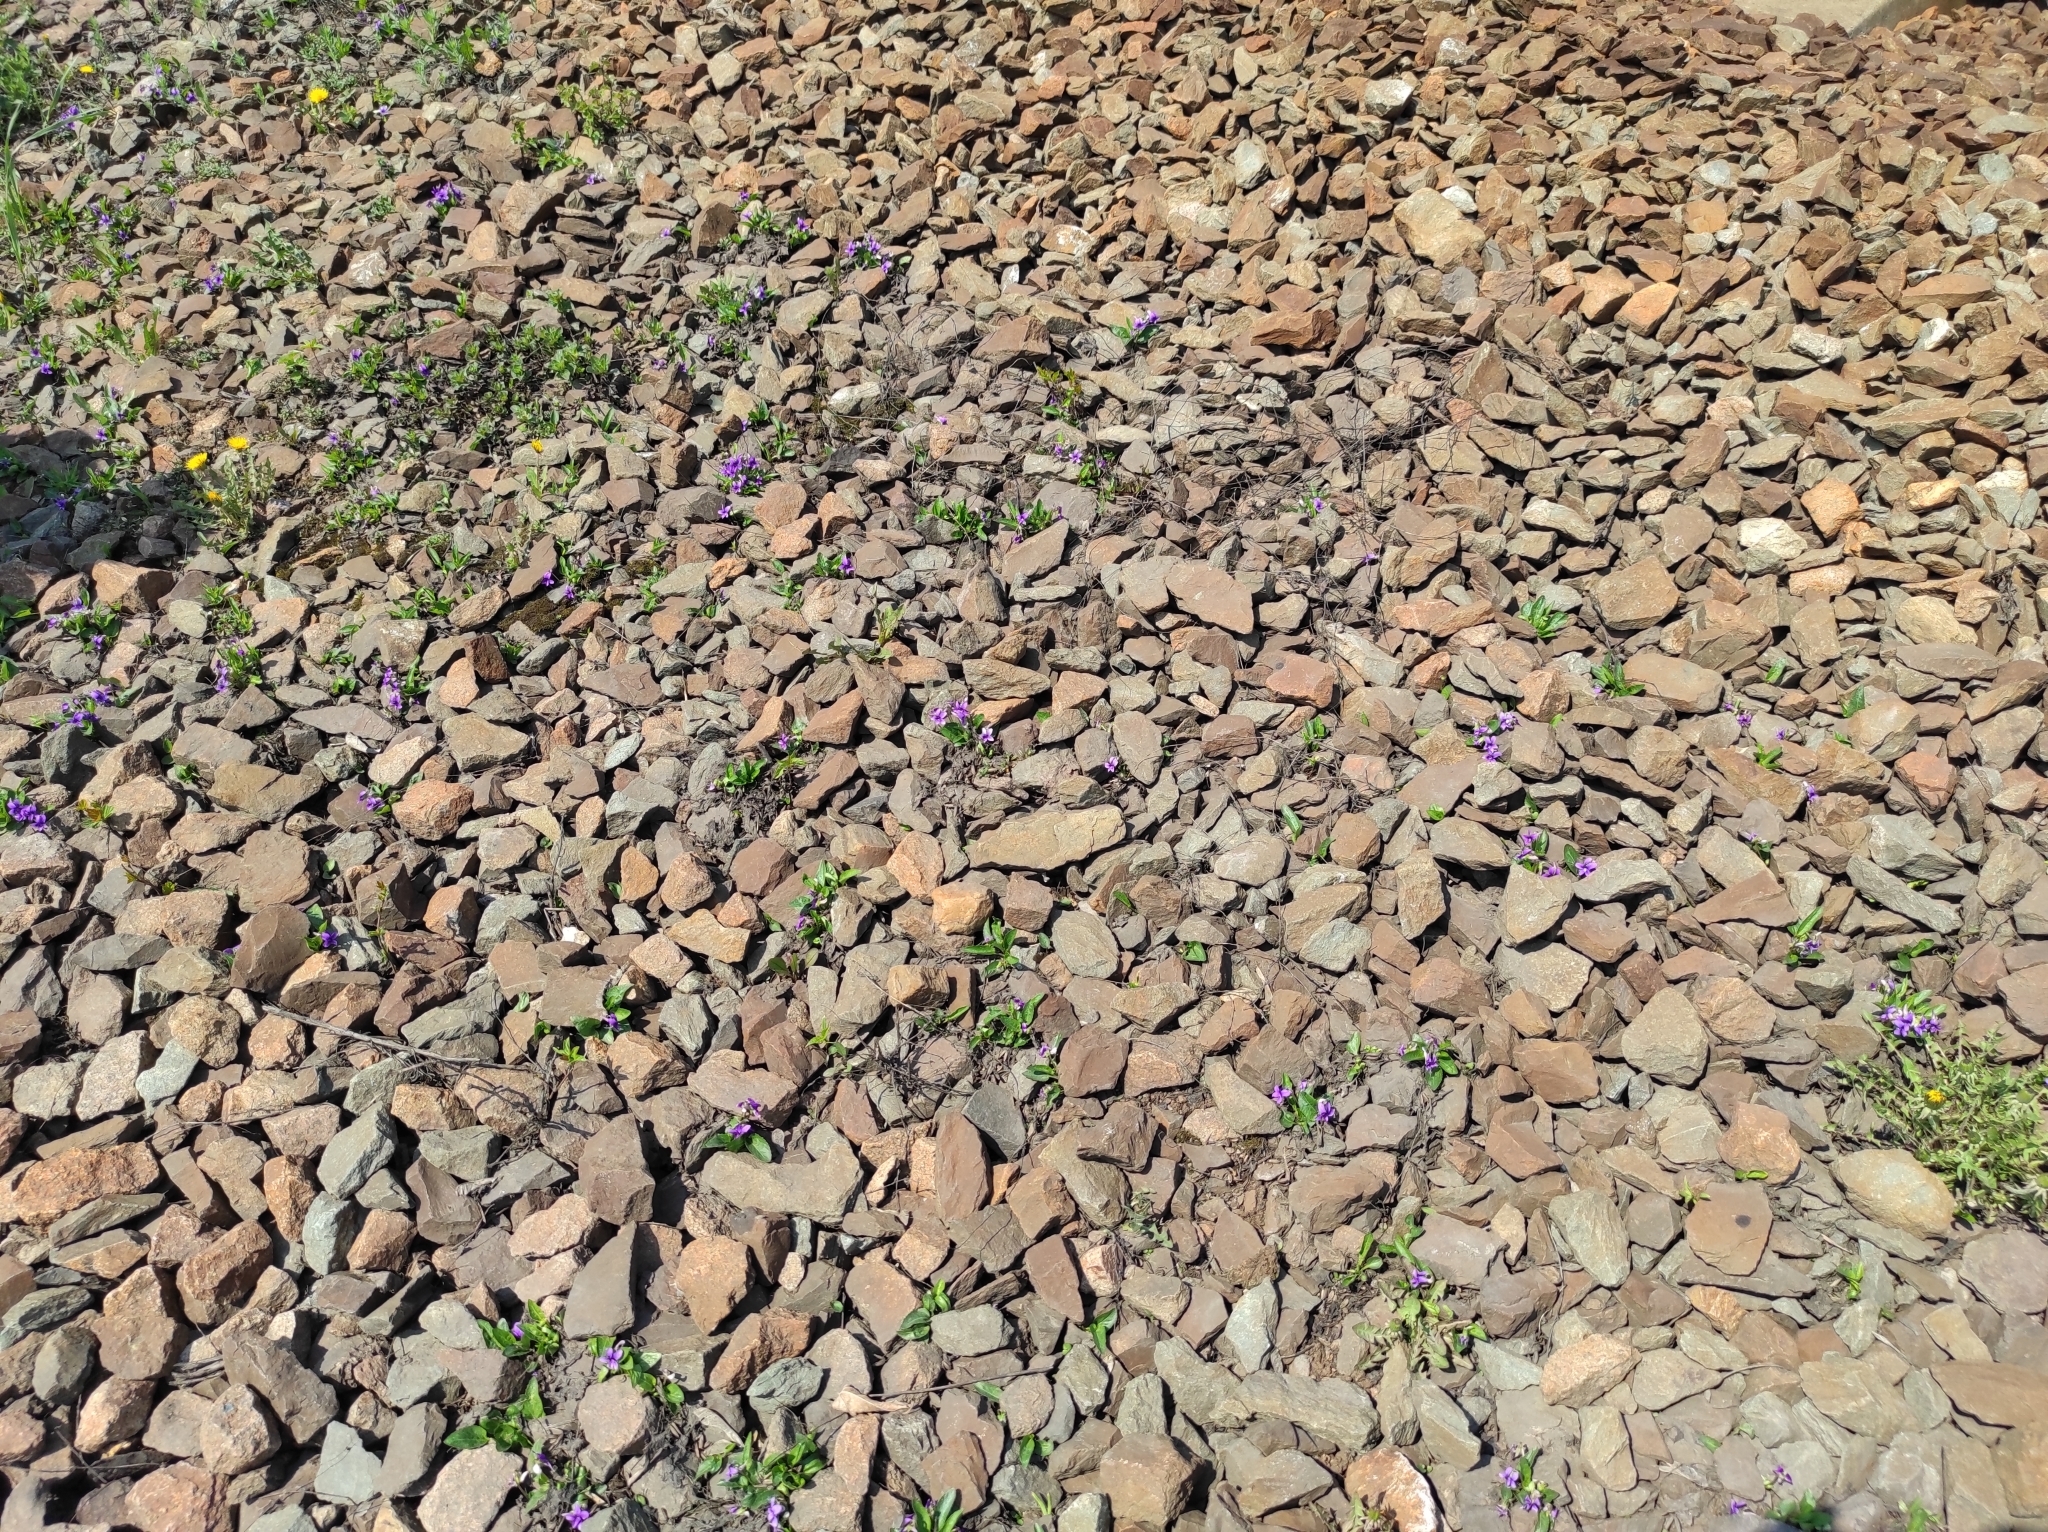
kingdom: Plantae
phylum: Tracheophyta
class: Magnoliopsida
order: Asterales
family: Asteraceae
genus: Taraxacum
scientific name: Taraxacum officinale
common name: Common dandelion
